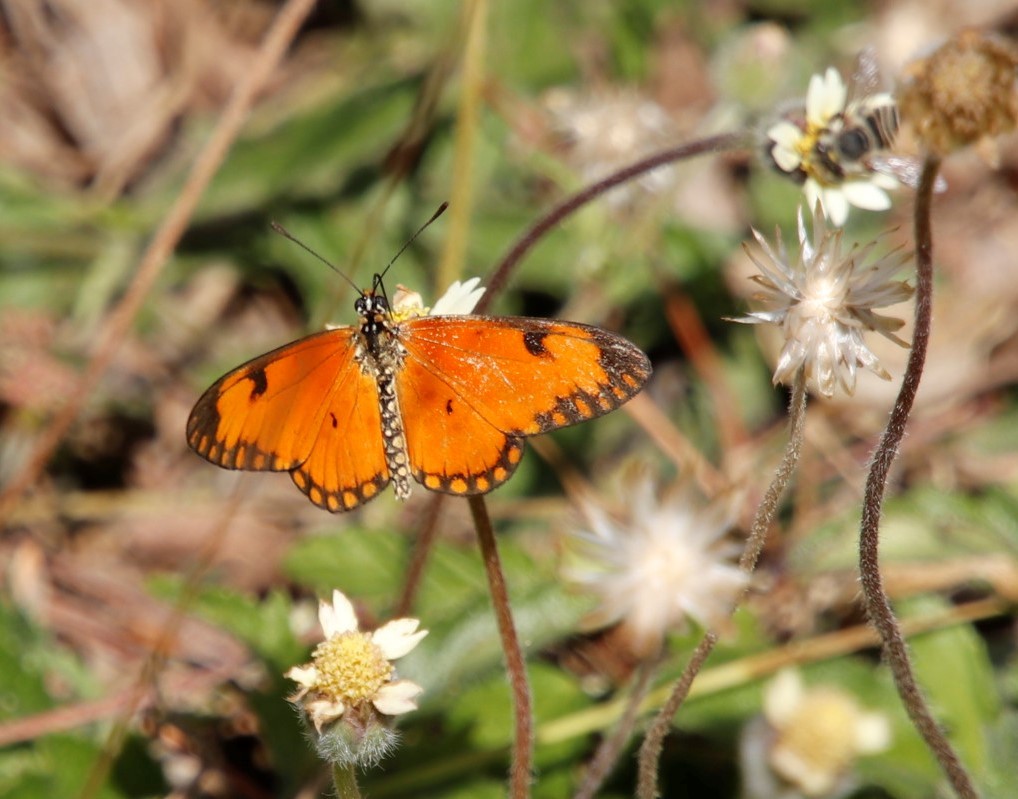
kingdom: Animalia
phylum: Arthropoda
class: Insecta
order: Lepidoptera
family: Nymphalidae
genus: Acraea
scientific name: Acraea Telchinia serena
